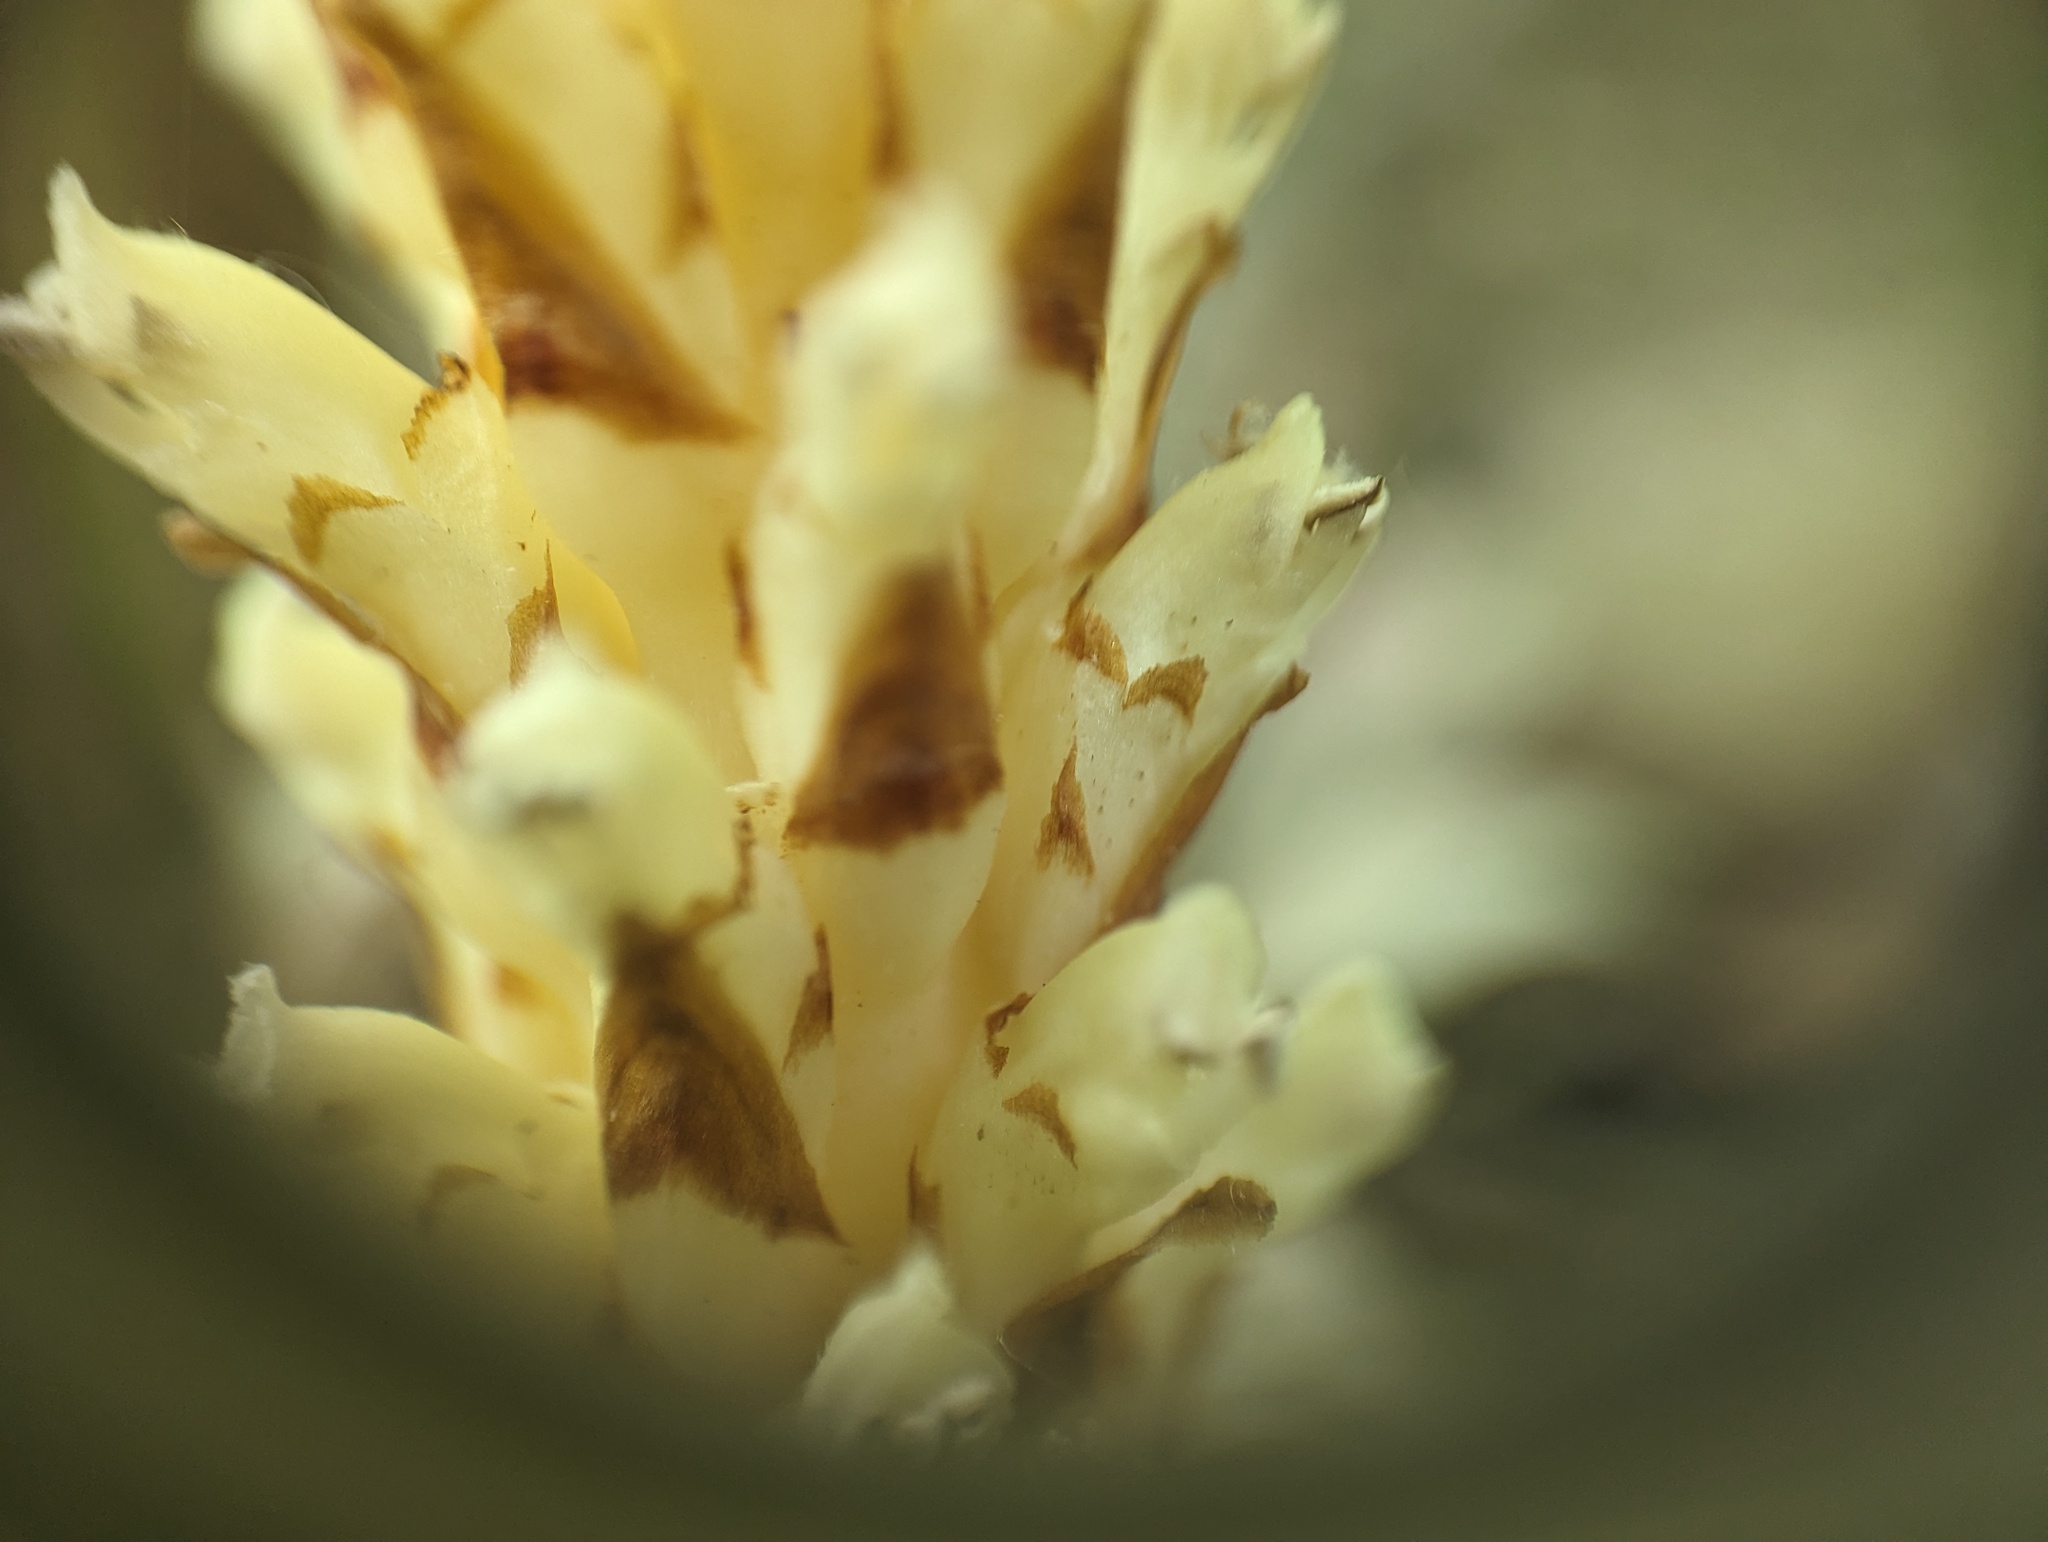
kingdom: Plantae
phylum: Tracheophyta
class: Magnoliopsida
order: Lamiales
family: Orobanchaceae
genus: Conopholis
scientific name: Conopholis americana
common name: American cancer-root
